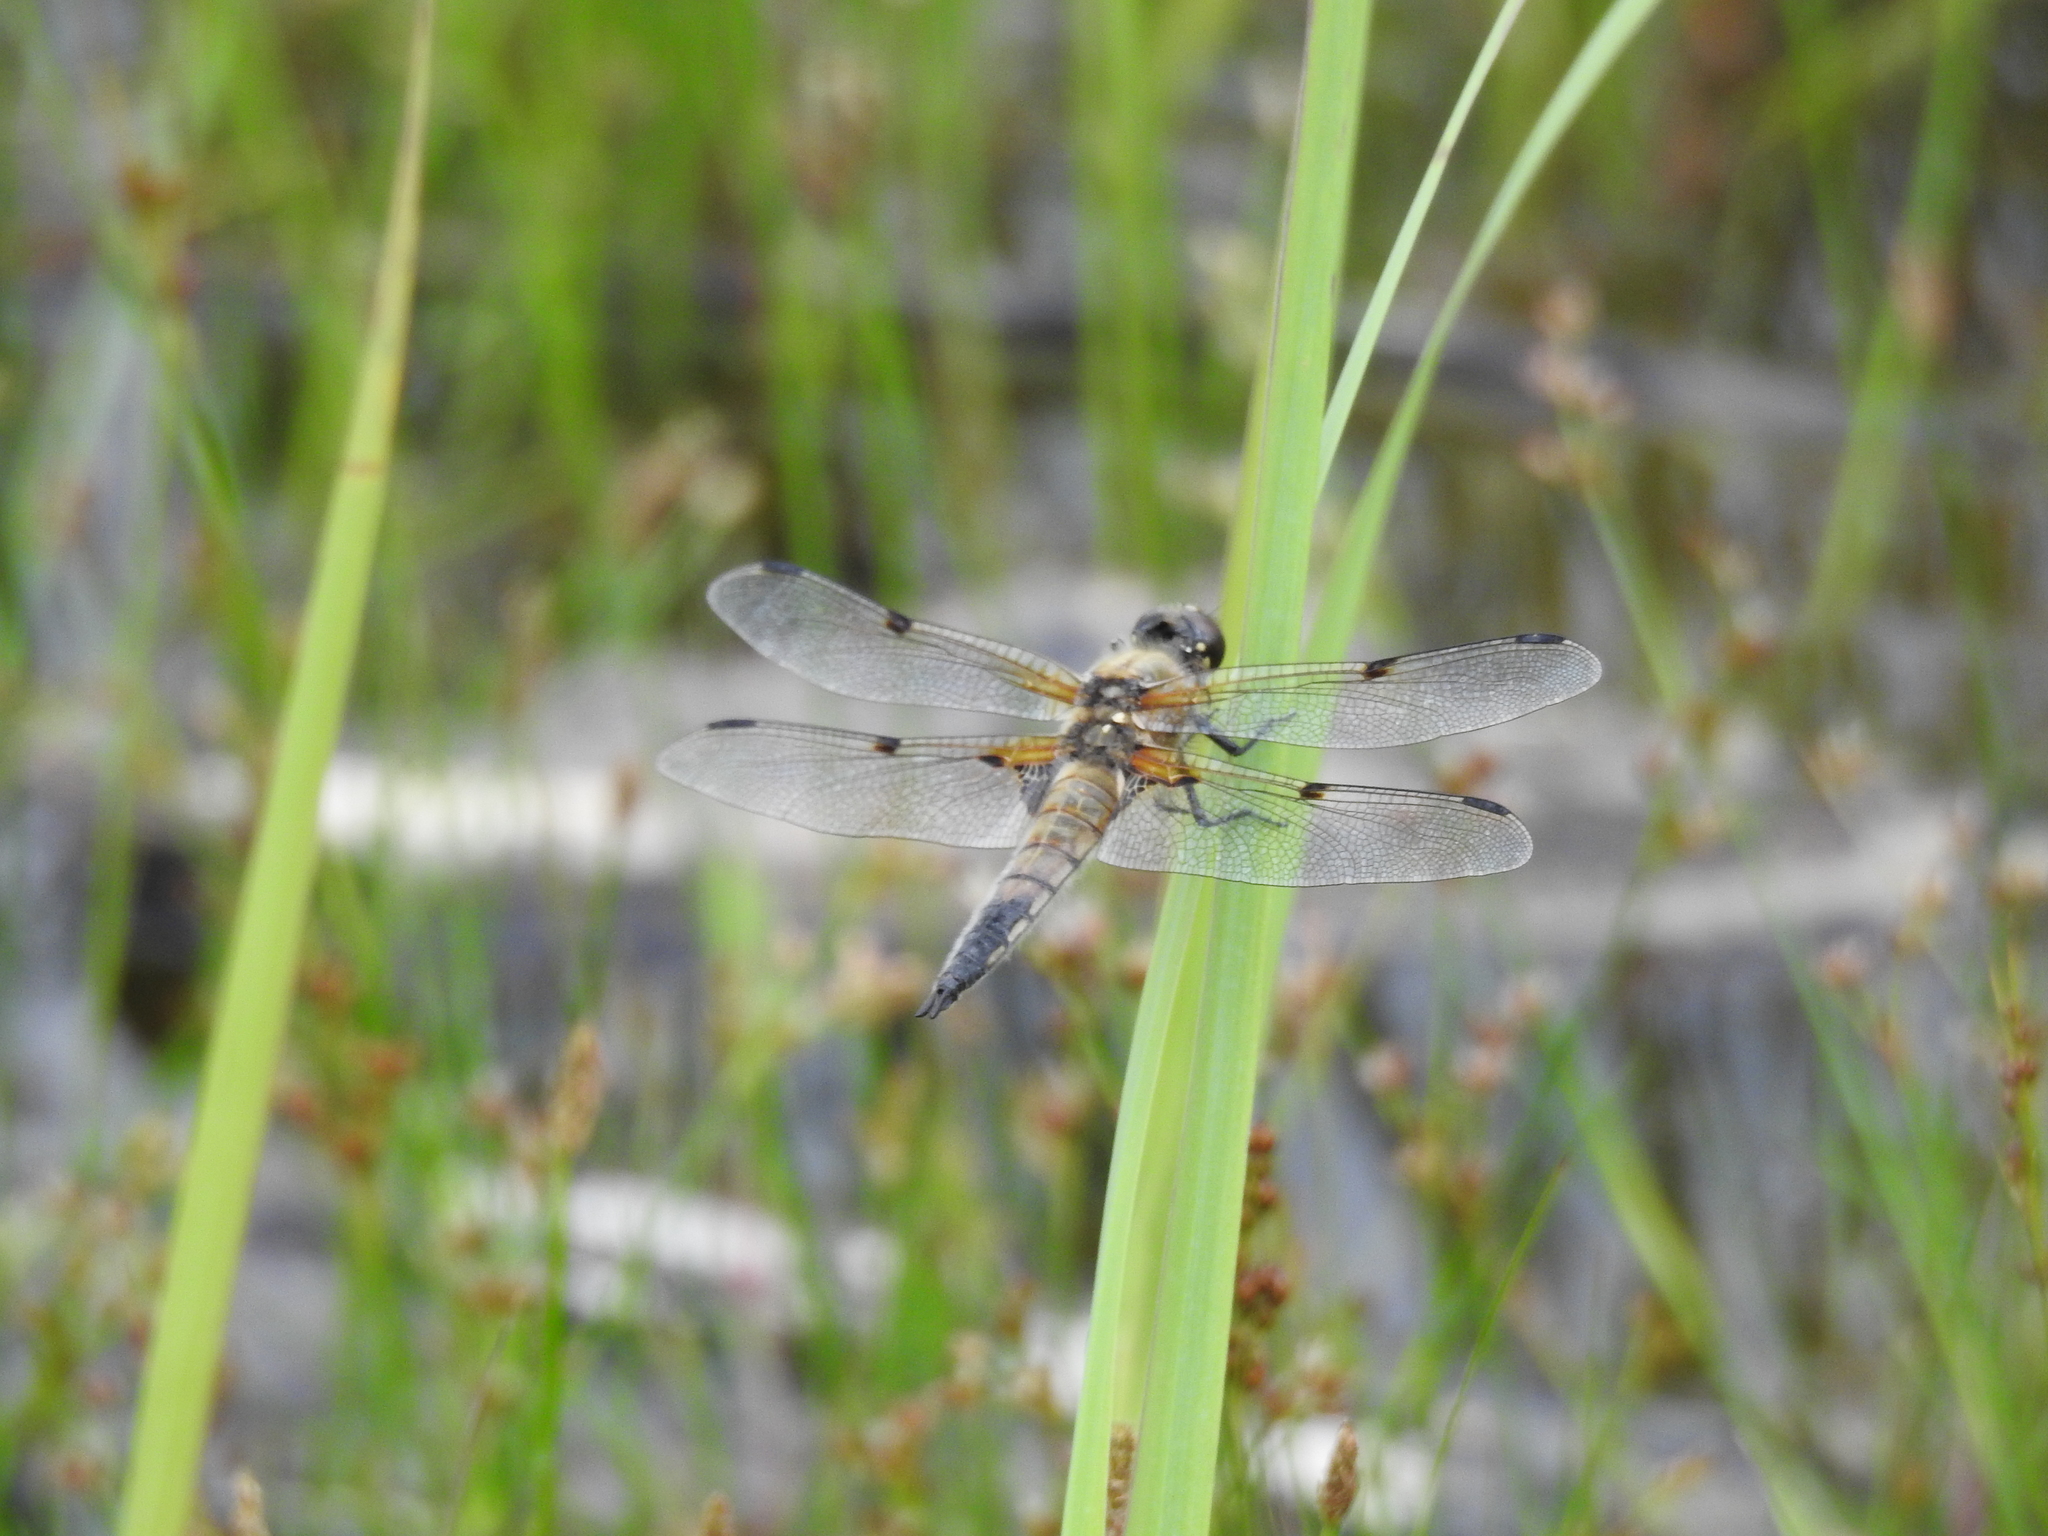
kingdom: Animalia
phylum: Arthropoda
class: Insecta
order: Odonata
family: Libellulidae
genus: Libellula
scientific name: Libellula quadrimaculata
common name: Four-spotted chaser
